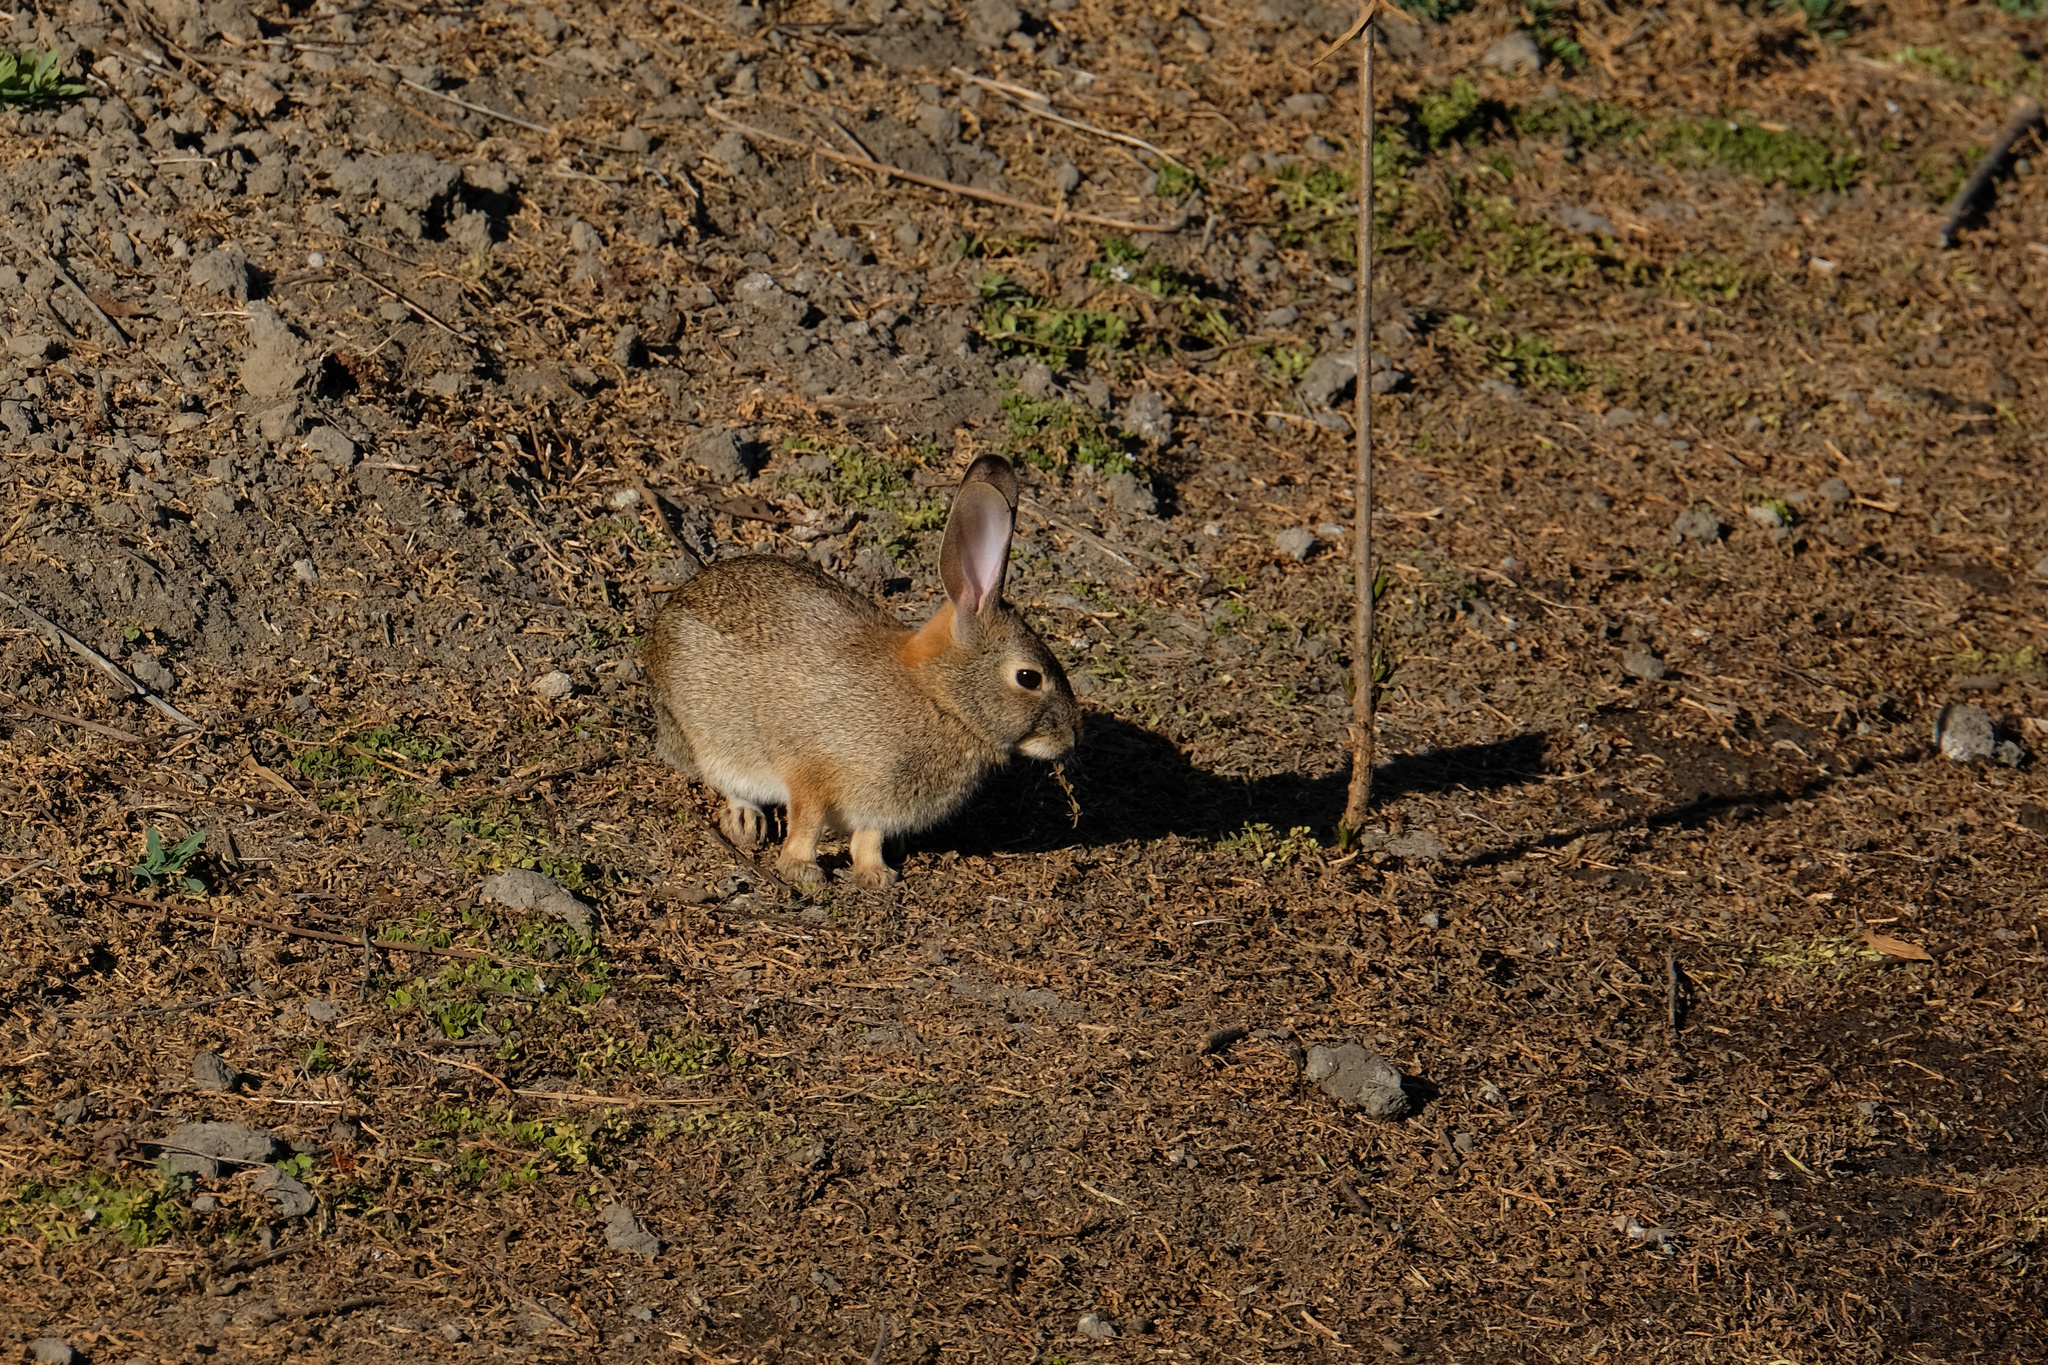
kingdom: Animalia
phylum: Chordata
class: Mammalia
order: Lagomorpha
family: Leporidae
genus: Sylvilagus
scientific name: Sylvilagus audubonii
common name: Desert cottontail
